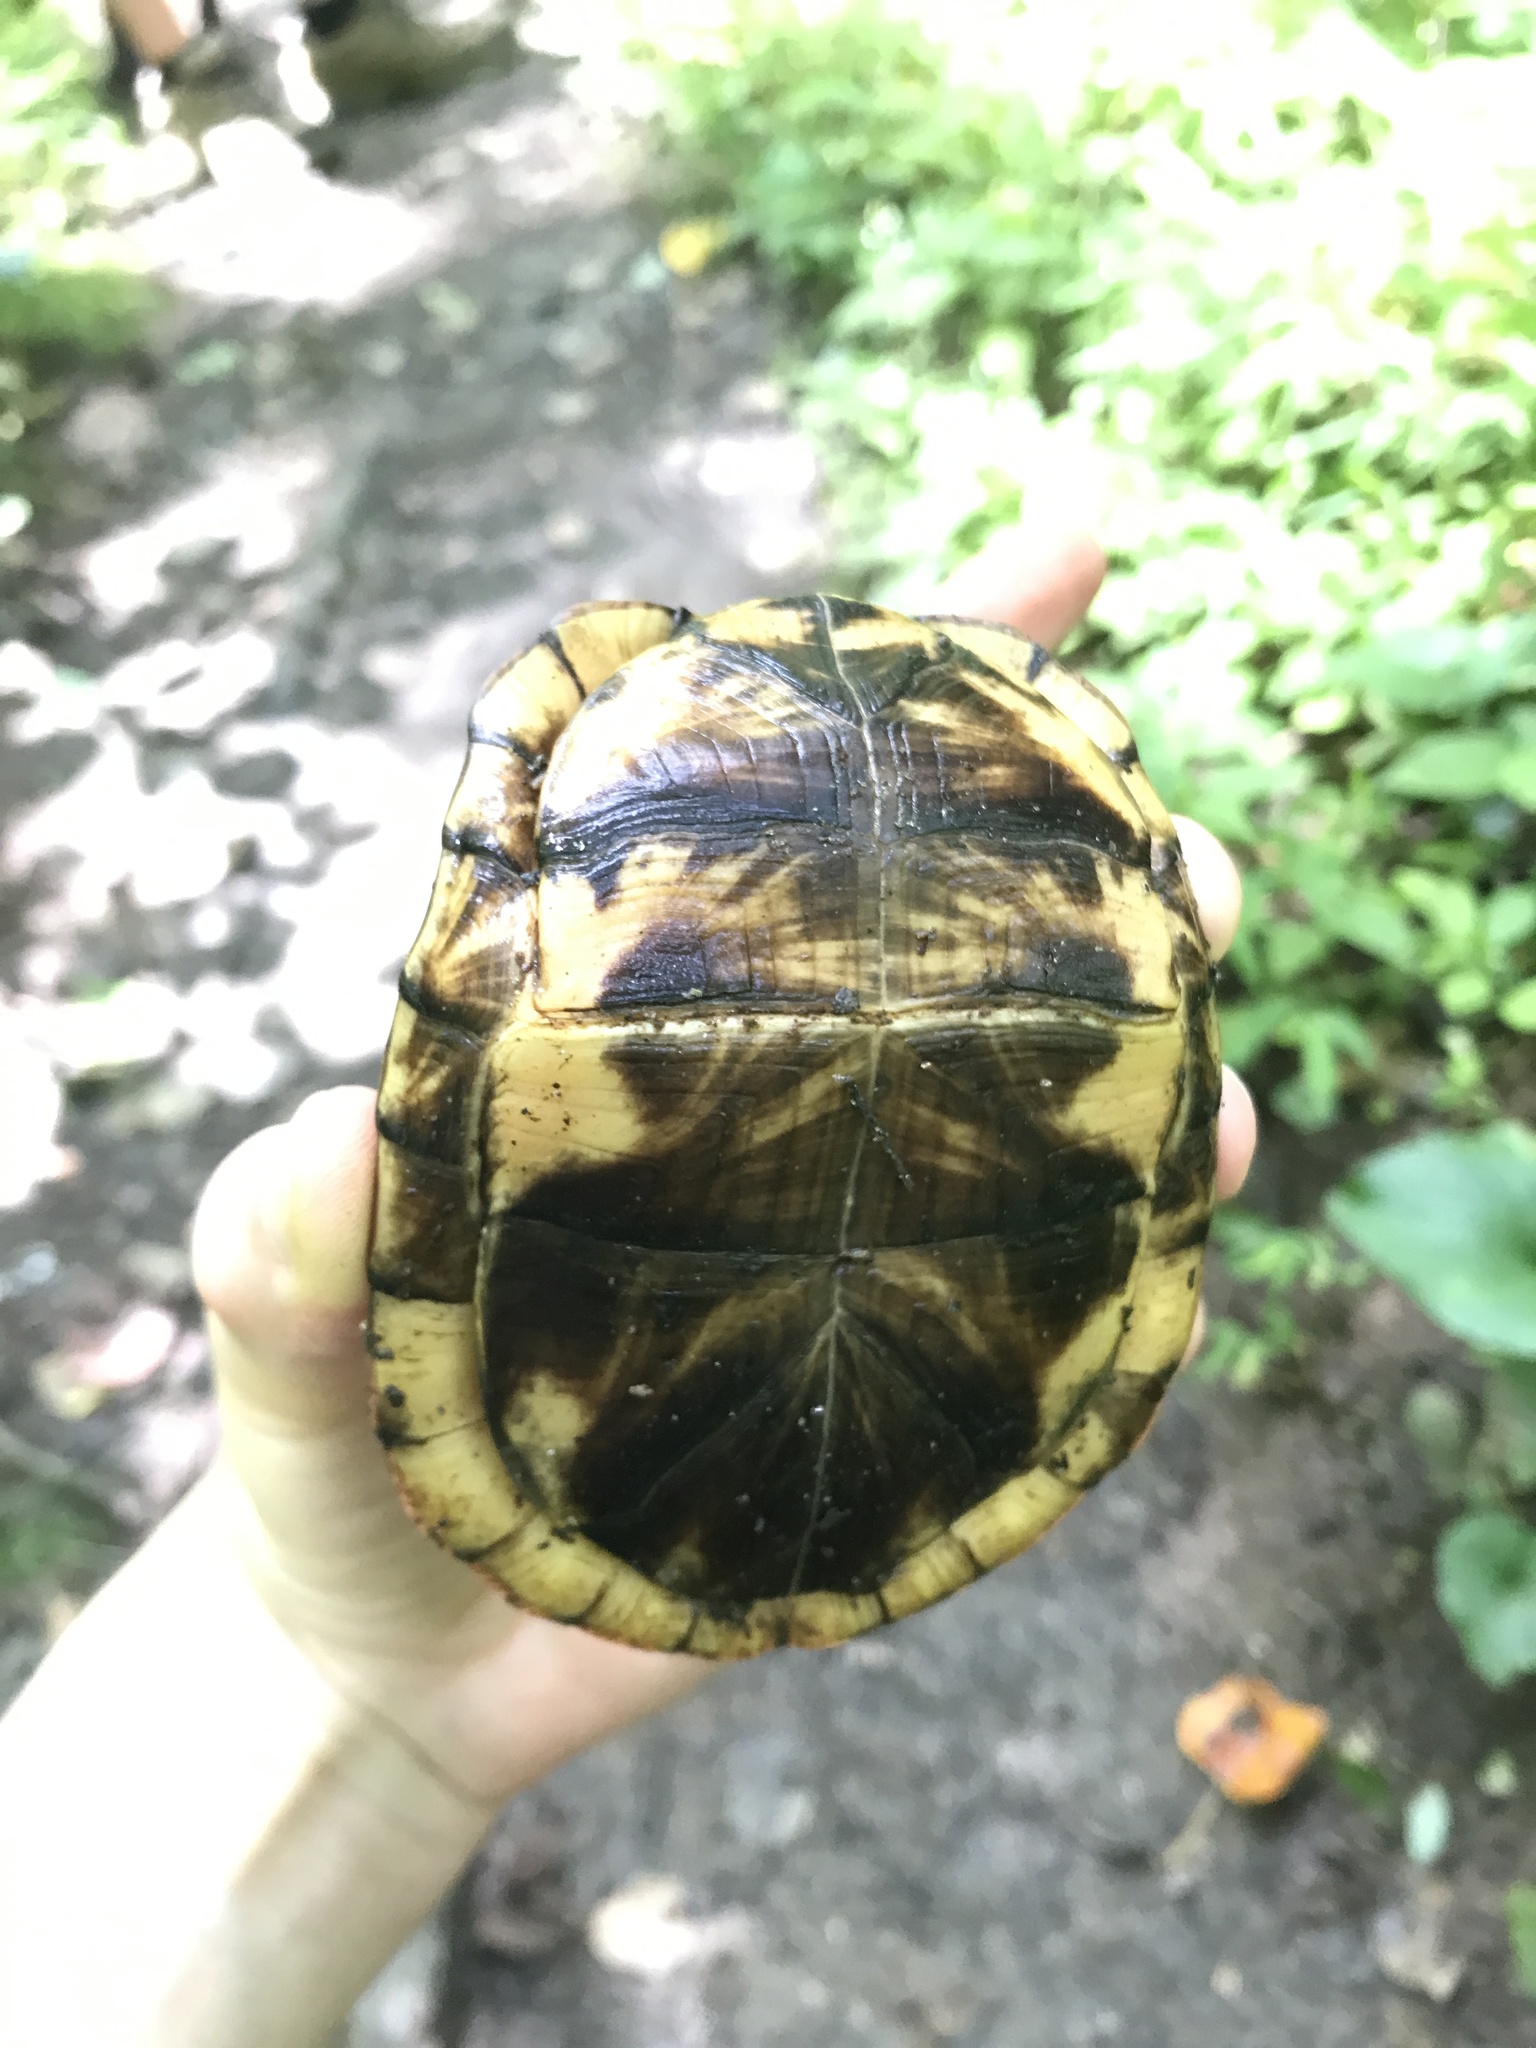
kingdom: Animalia
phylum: Chordata
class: Testudines
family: Emydidae
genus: Terrapene
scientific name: Terrapene carolina
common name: Common box turtle
